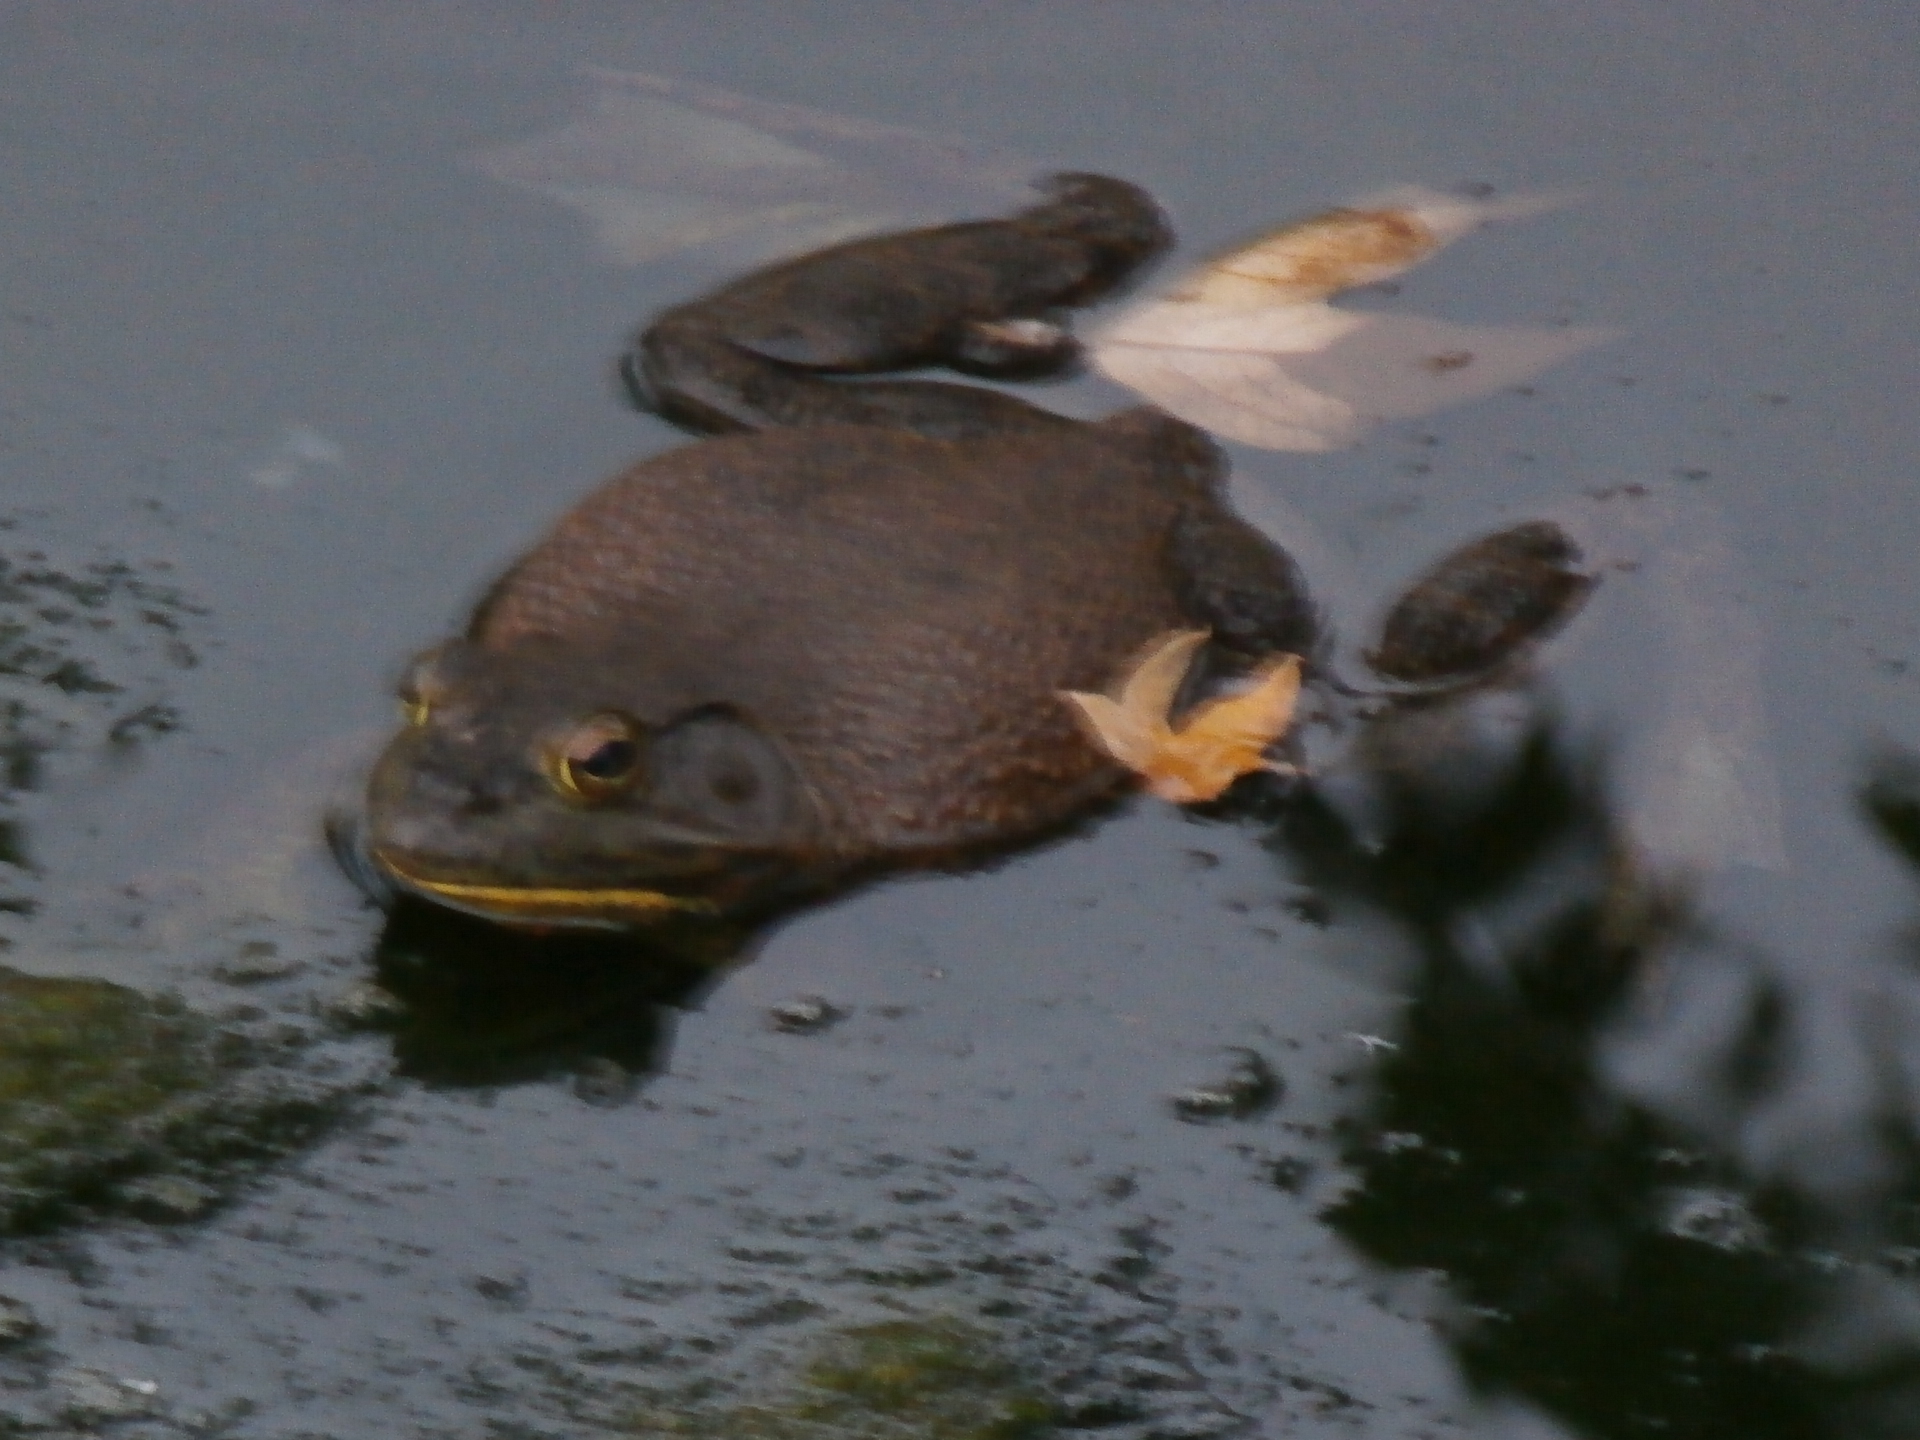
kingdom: Animalia
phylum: Chordata
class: Amphibia
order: Anura
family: Ranidae
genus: Lithobates
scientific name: Lithobates catesbeianus
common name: American bullfrog
